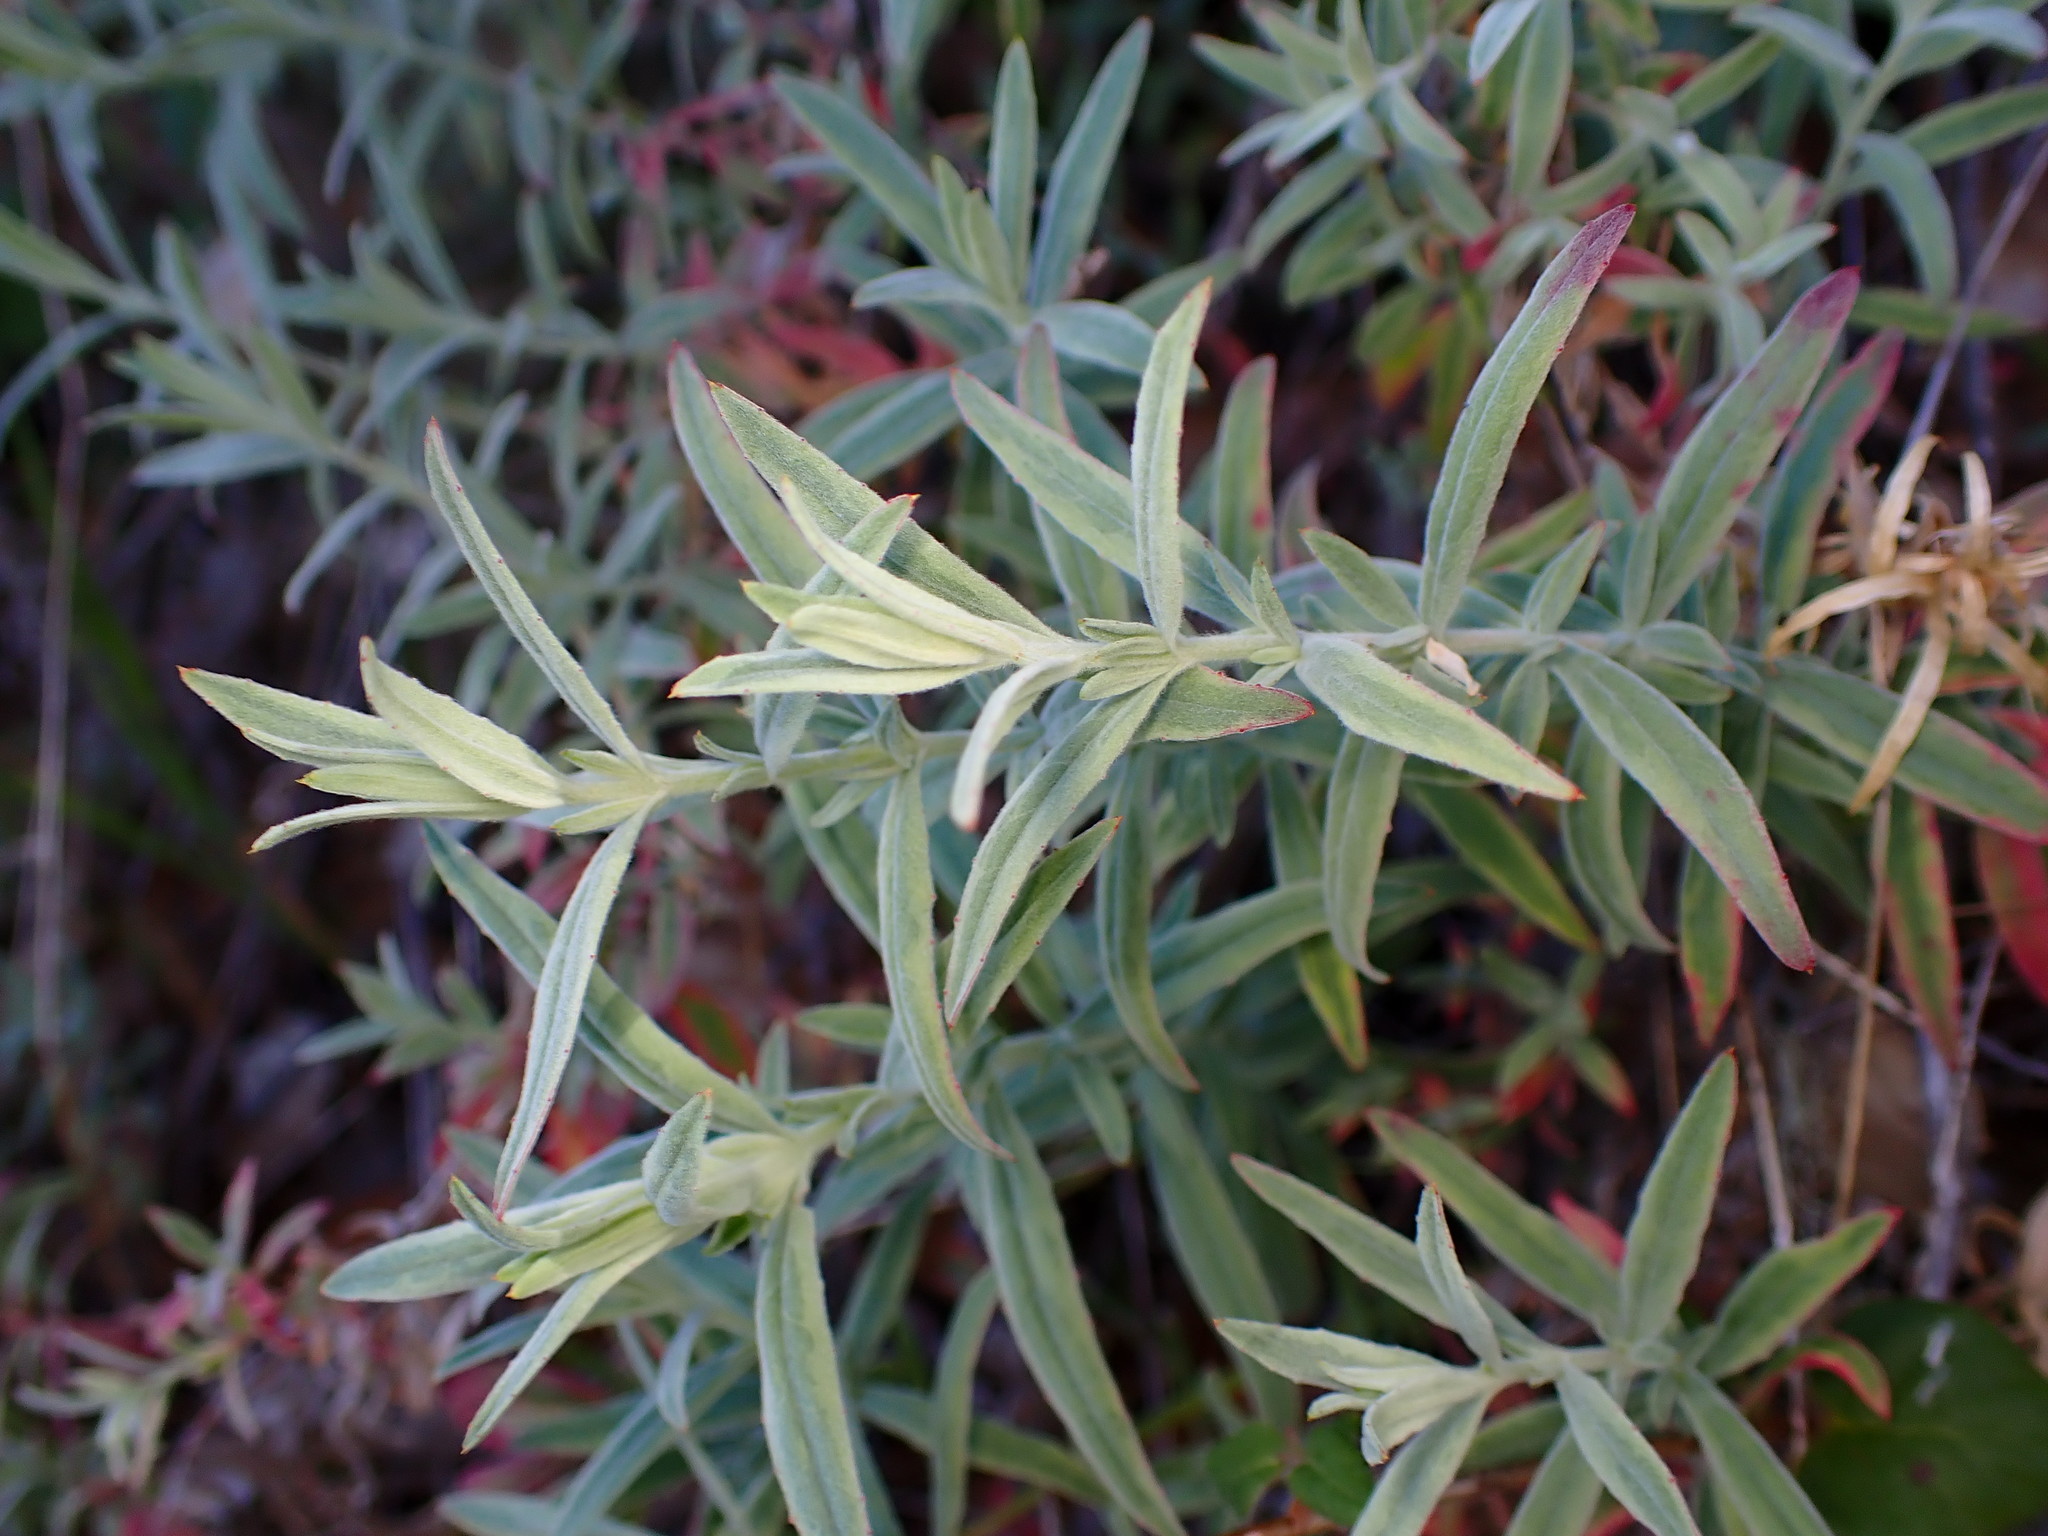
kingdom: Plantae
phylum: Tracheophyta
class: Magnoliopsida
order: Myrtales
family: Onagraceae
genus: Epilobium
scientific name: Epilobium canum
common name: California-fuchsia
